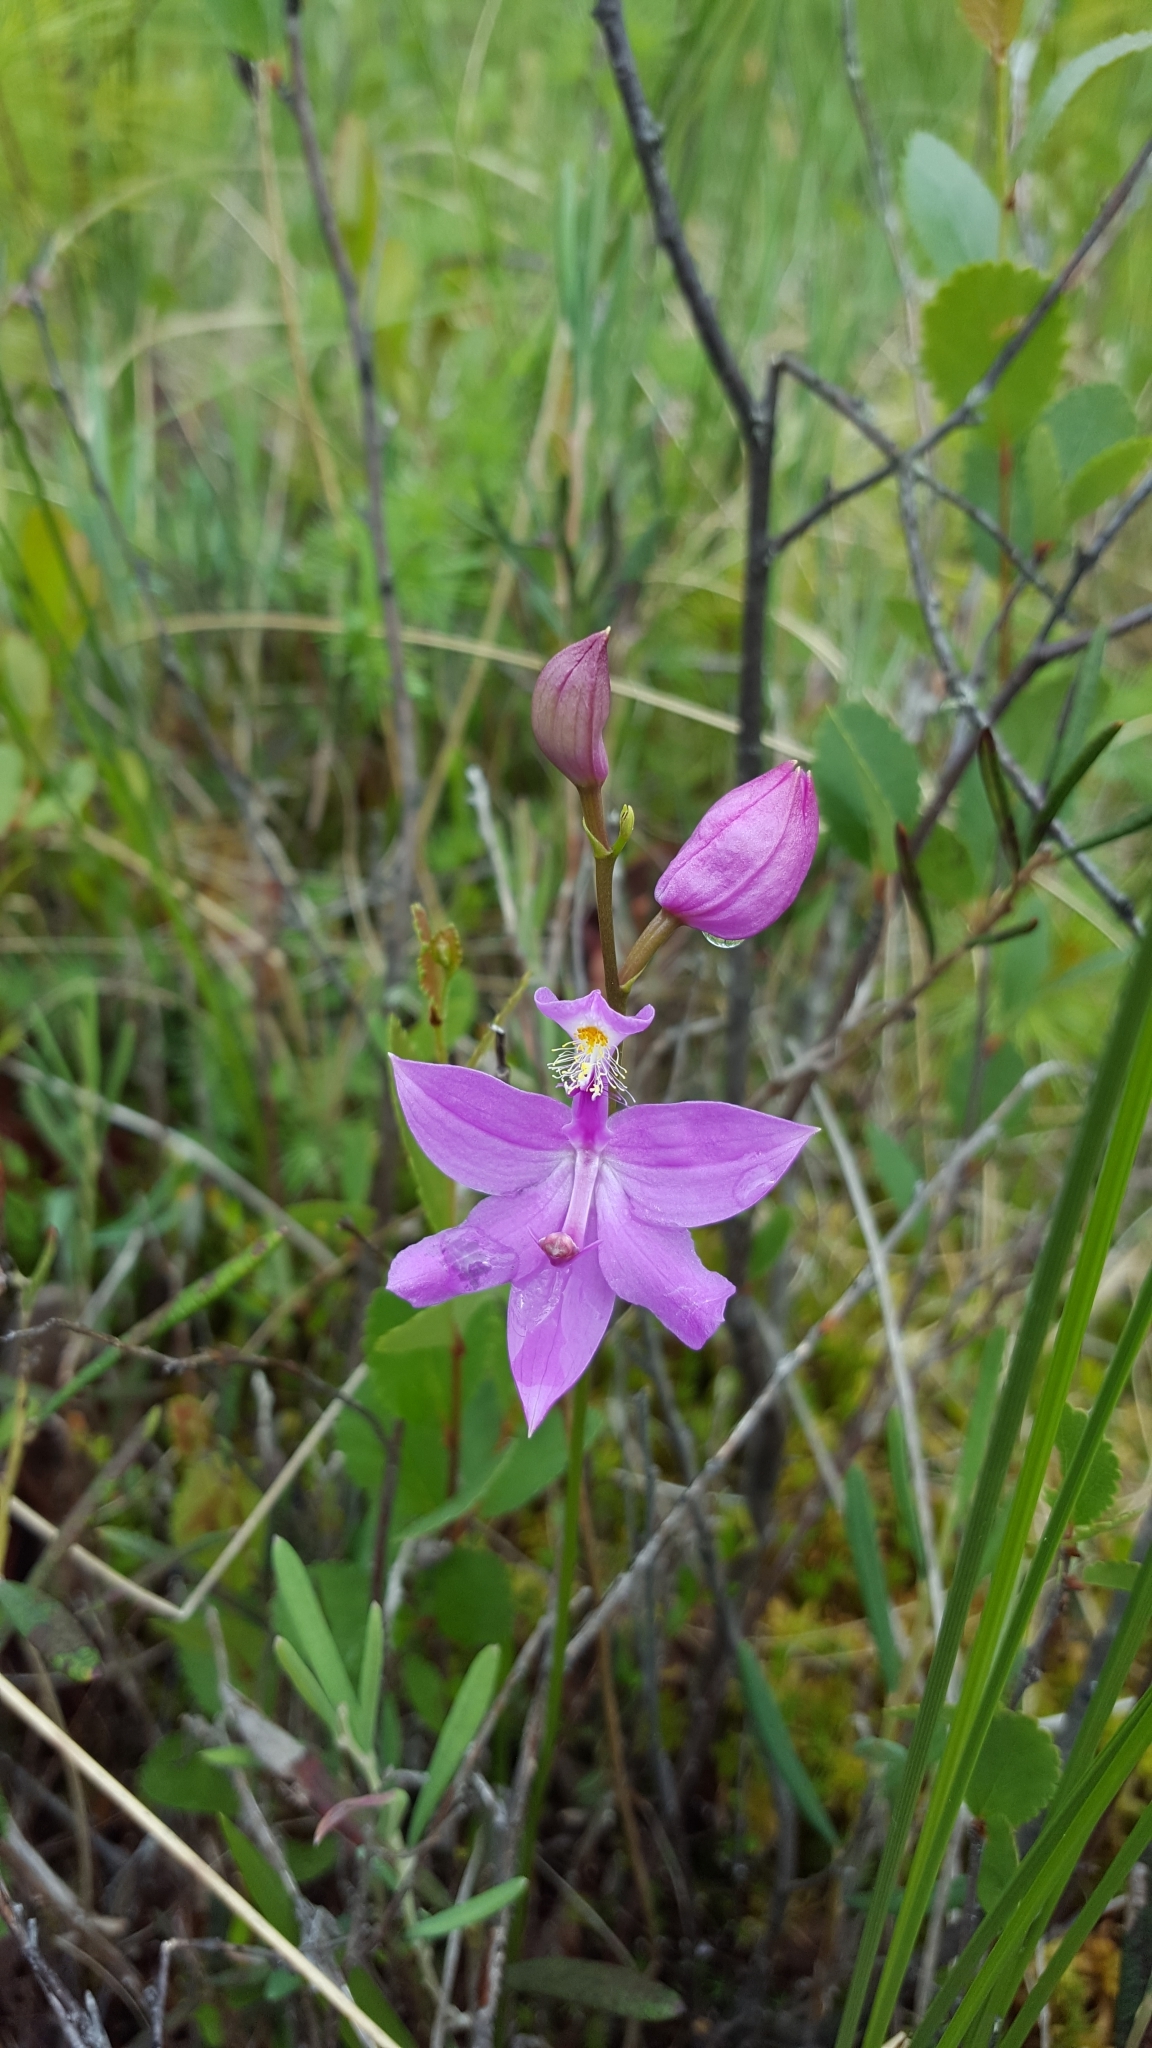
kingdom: Plantae
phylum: Tracheophyta
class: Liliopsida
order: Asparagales
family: Orchidaceae
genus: Calopogon
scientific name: Calopogon tuberosus
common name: Grass-pink
